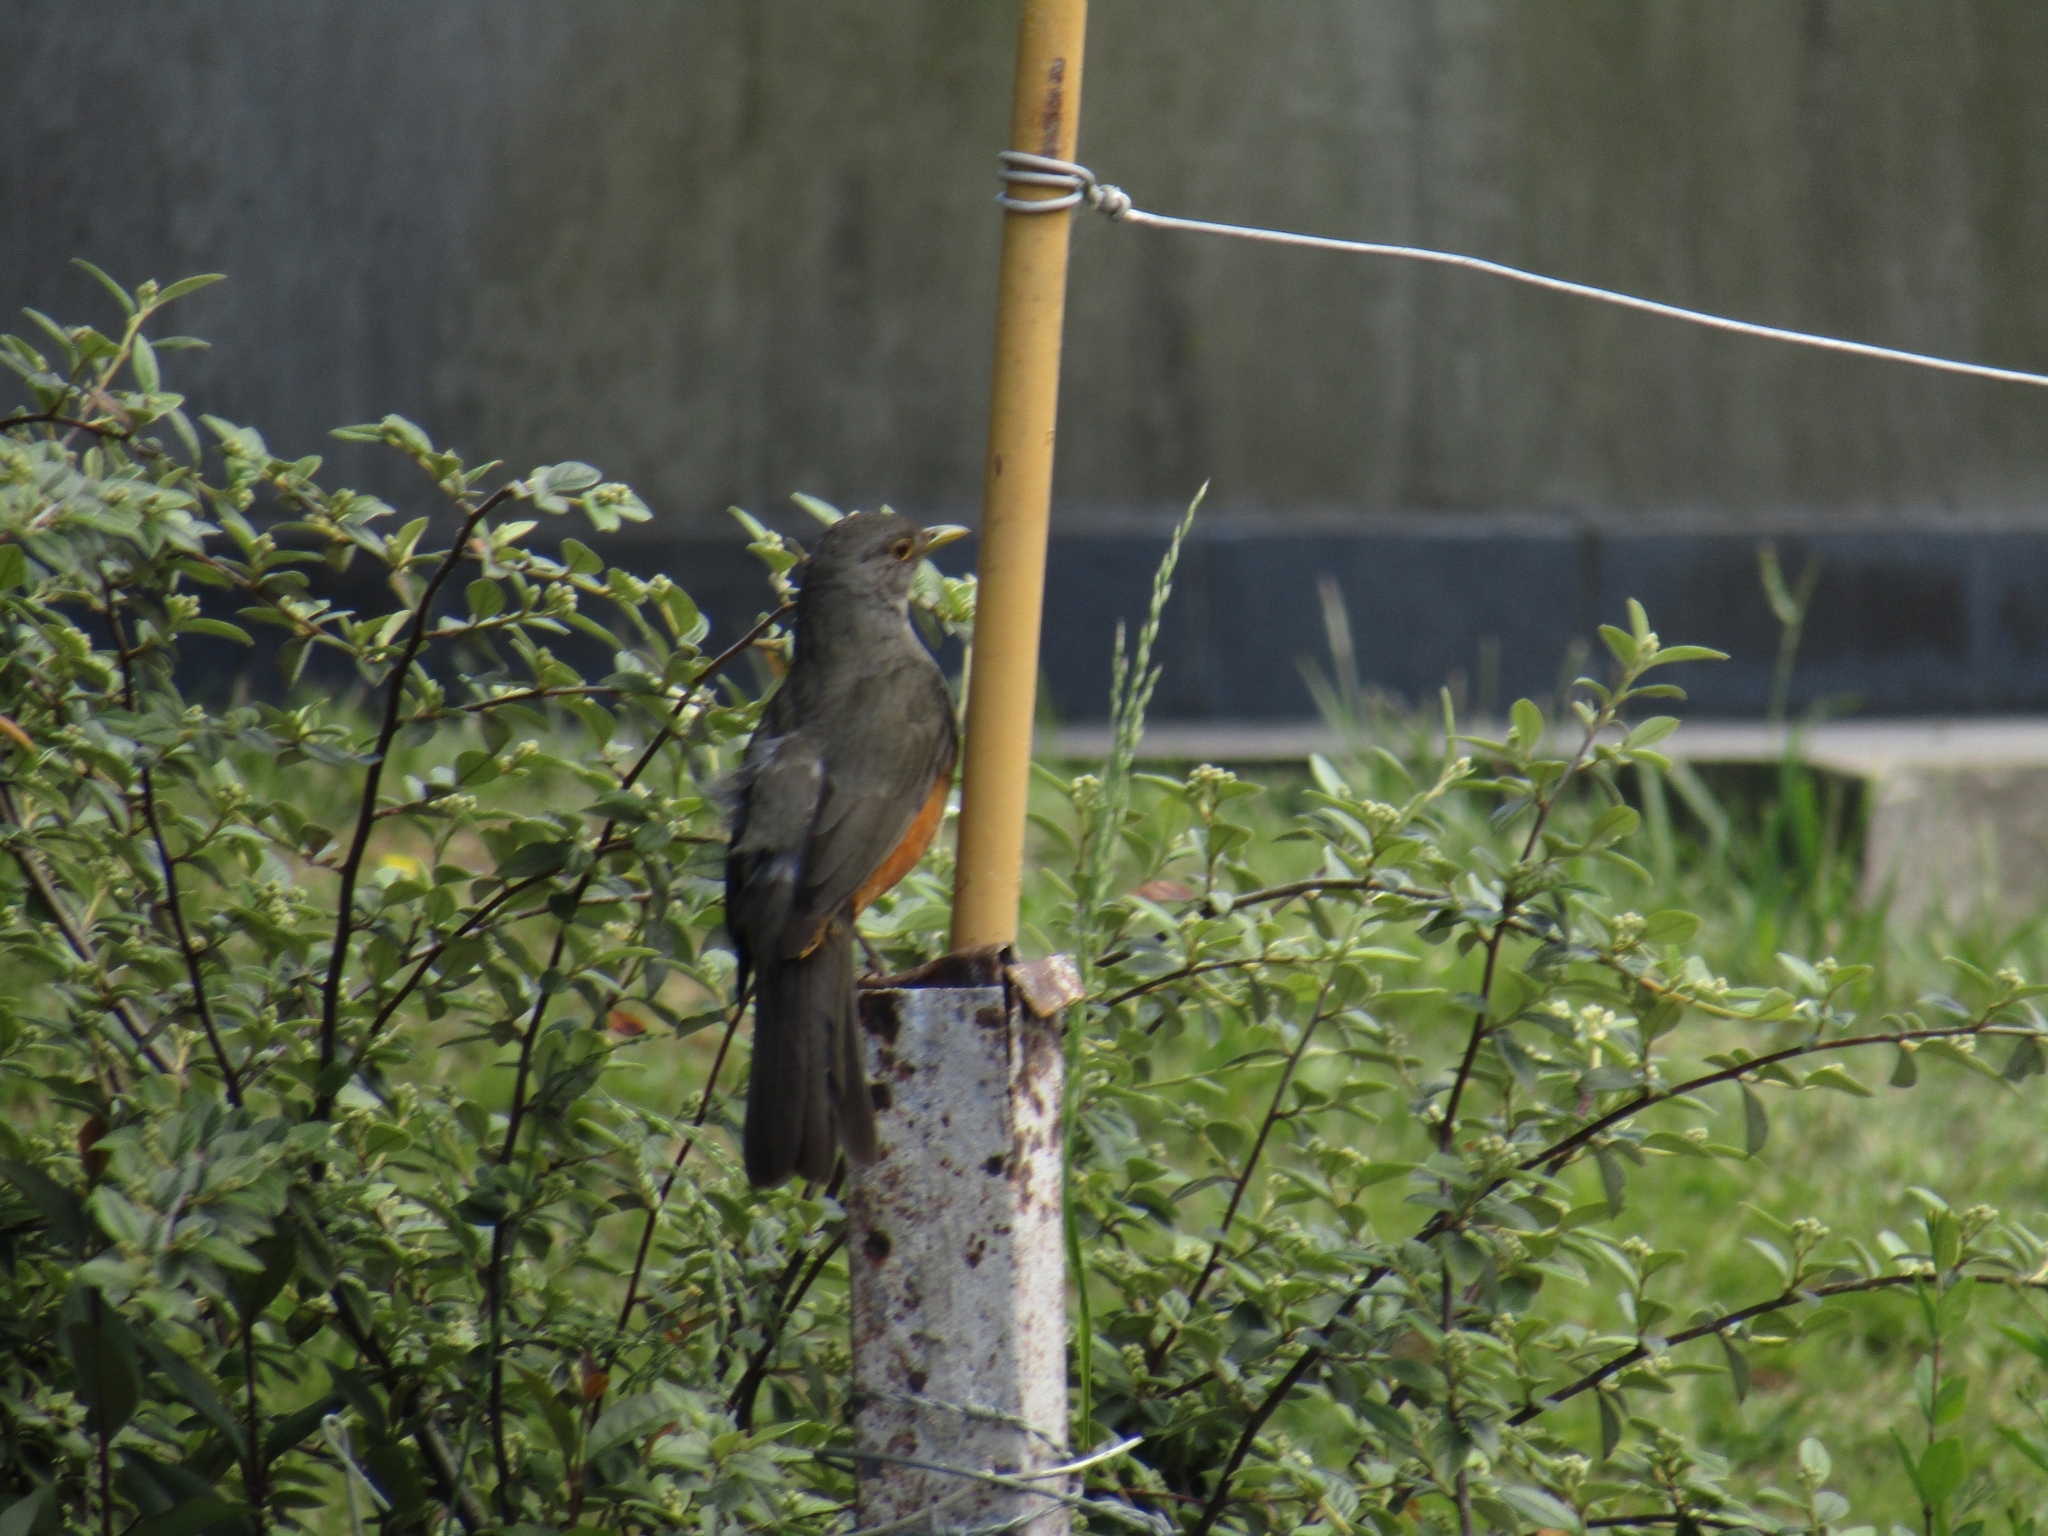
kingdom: Animalia
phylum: Chordata
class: Aves
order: Passeriformes
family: Turdidae
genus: Turdus
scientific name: Turdus rufiventris
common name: Rufous-bellied thrush
